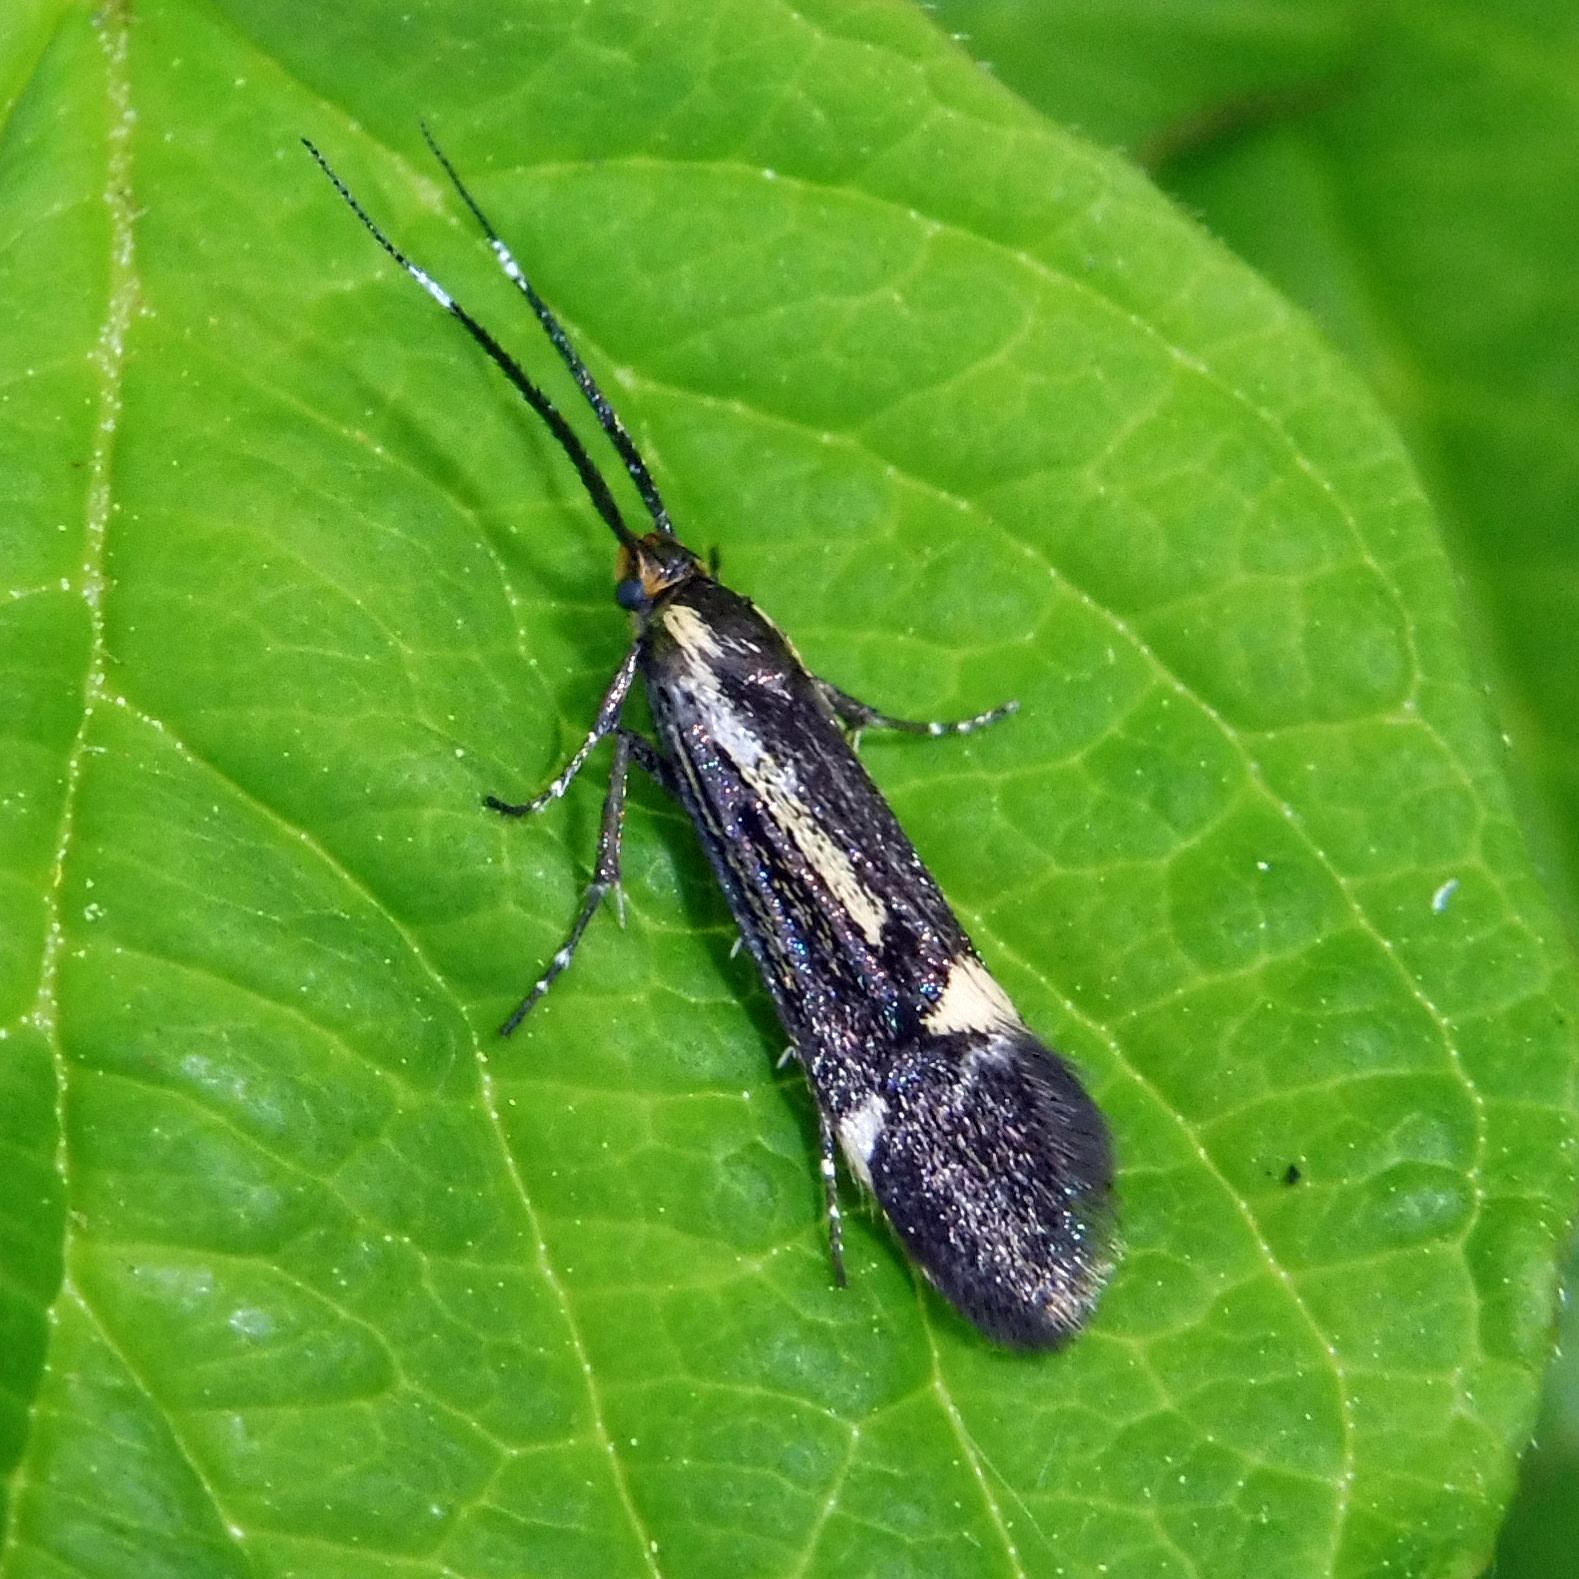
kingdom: Animalia
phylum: Arthropoda
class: Insecta
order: Lepidoptera
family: Oecophoridae
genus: Dafa
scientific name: Dafa Esperia sulphurella
